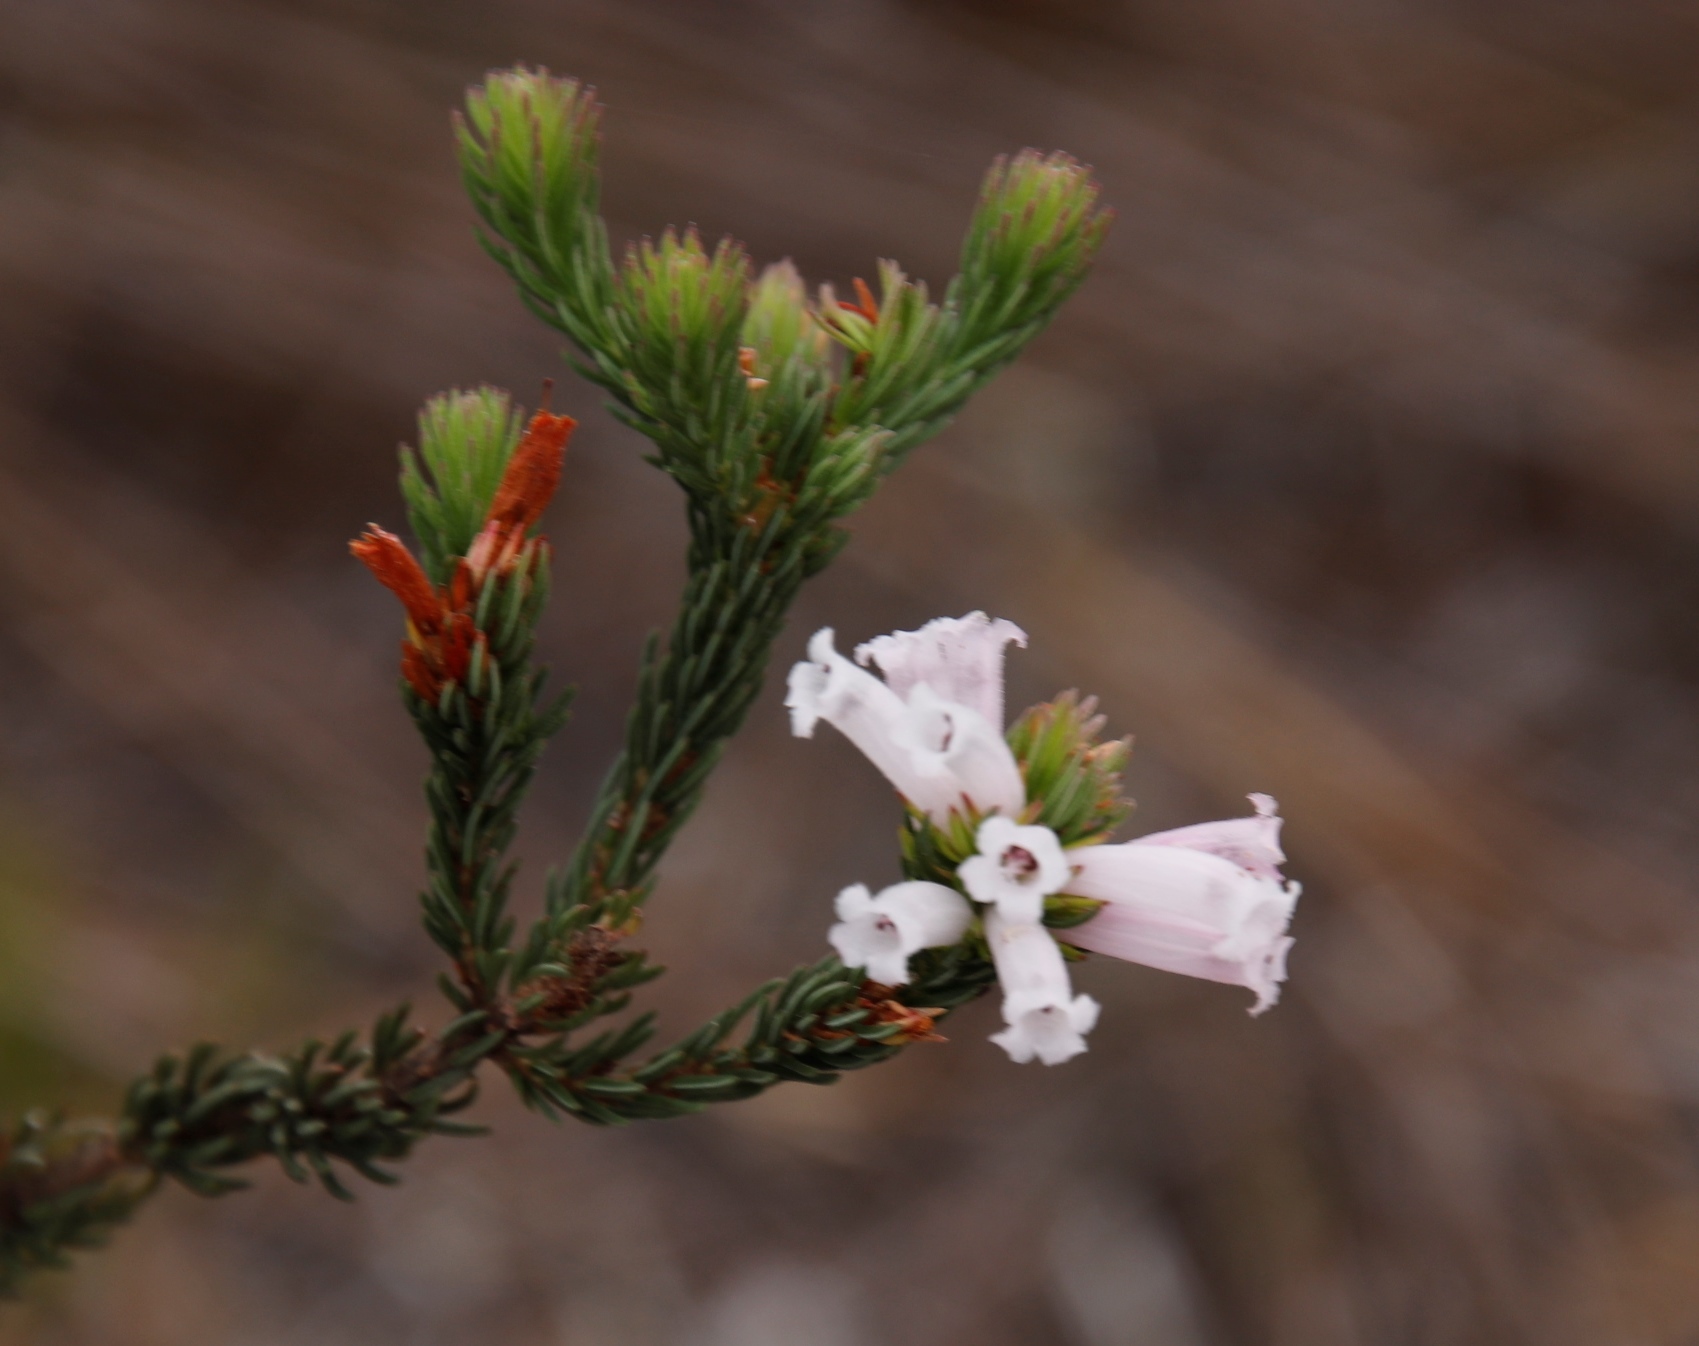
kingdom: Plantae
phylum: Tracheophyta
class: Magnoliopsida
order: Ericales
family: Ericaceae
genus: Erica
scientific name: Erica viscaria
